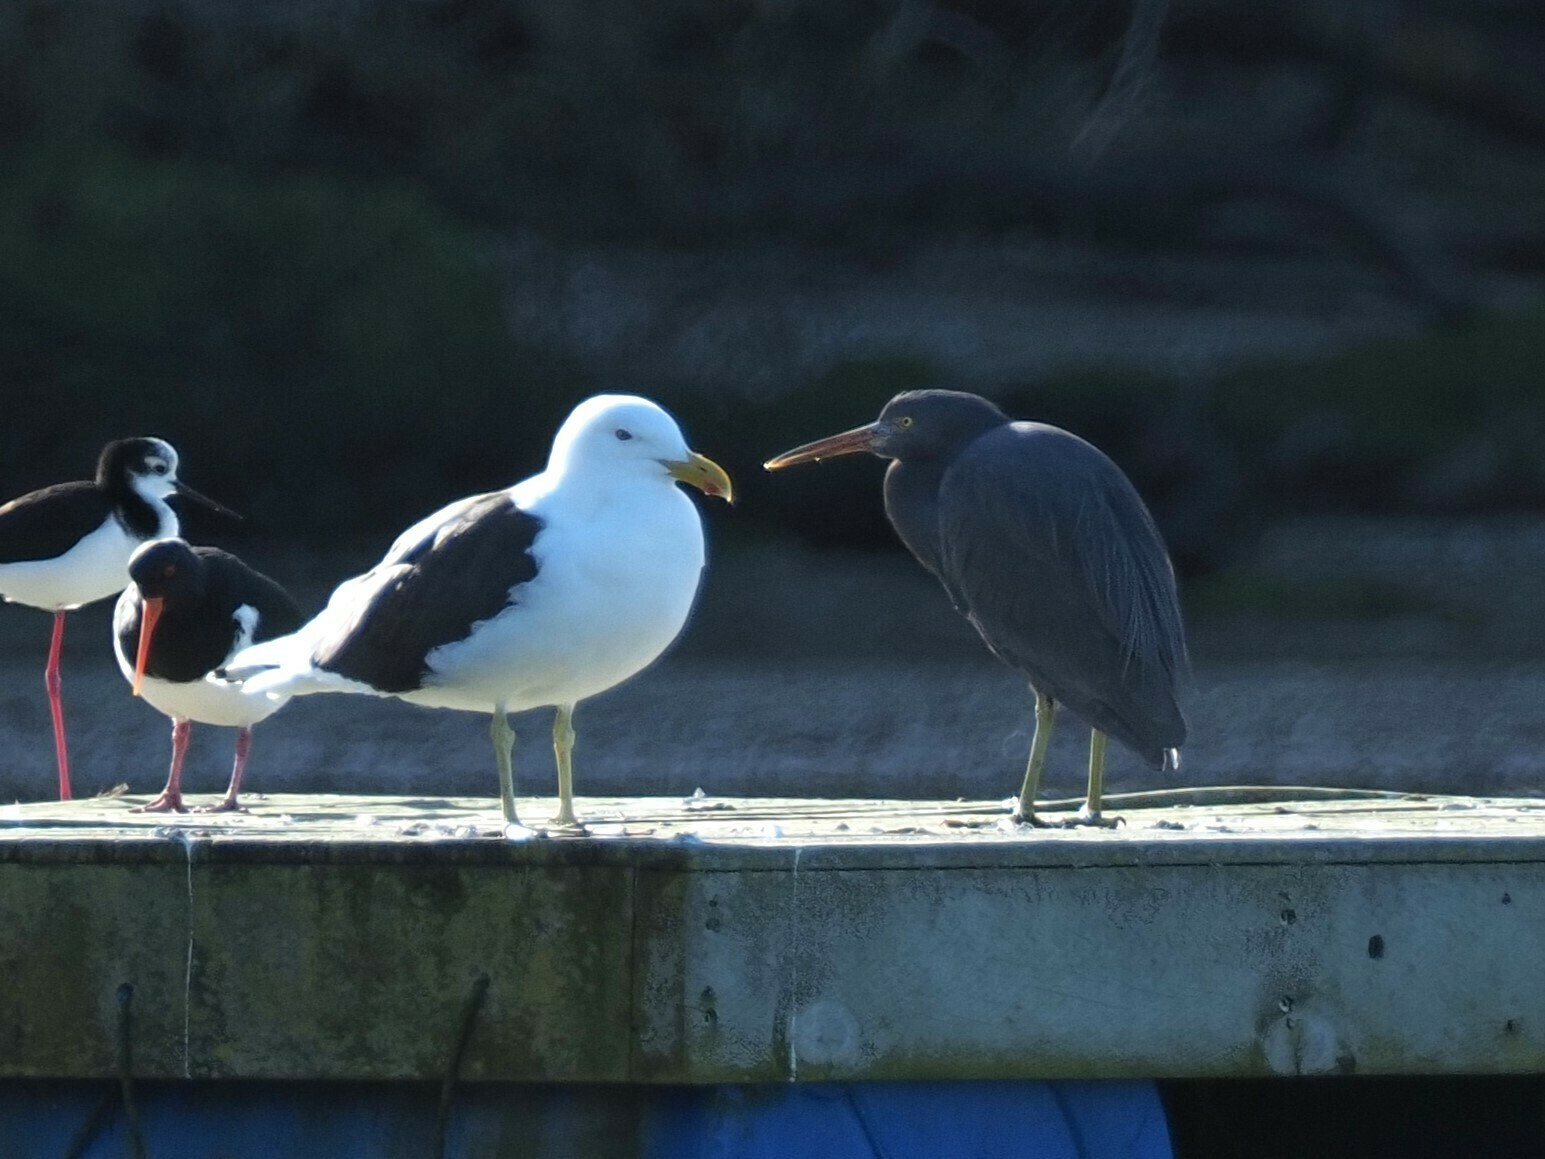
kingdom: Animalia
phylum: Chordata
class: Aves
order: Pelecaniformes
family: Ardeidae
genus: Egretta
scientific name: Egretta sacra
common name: Pacific reef heron
